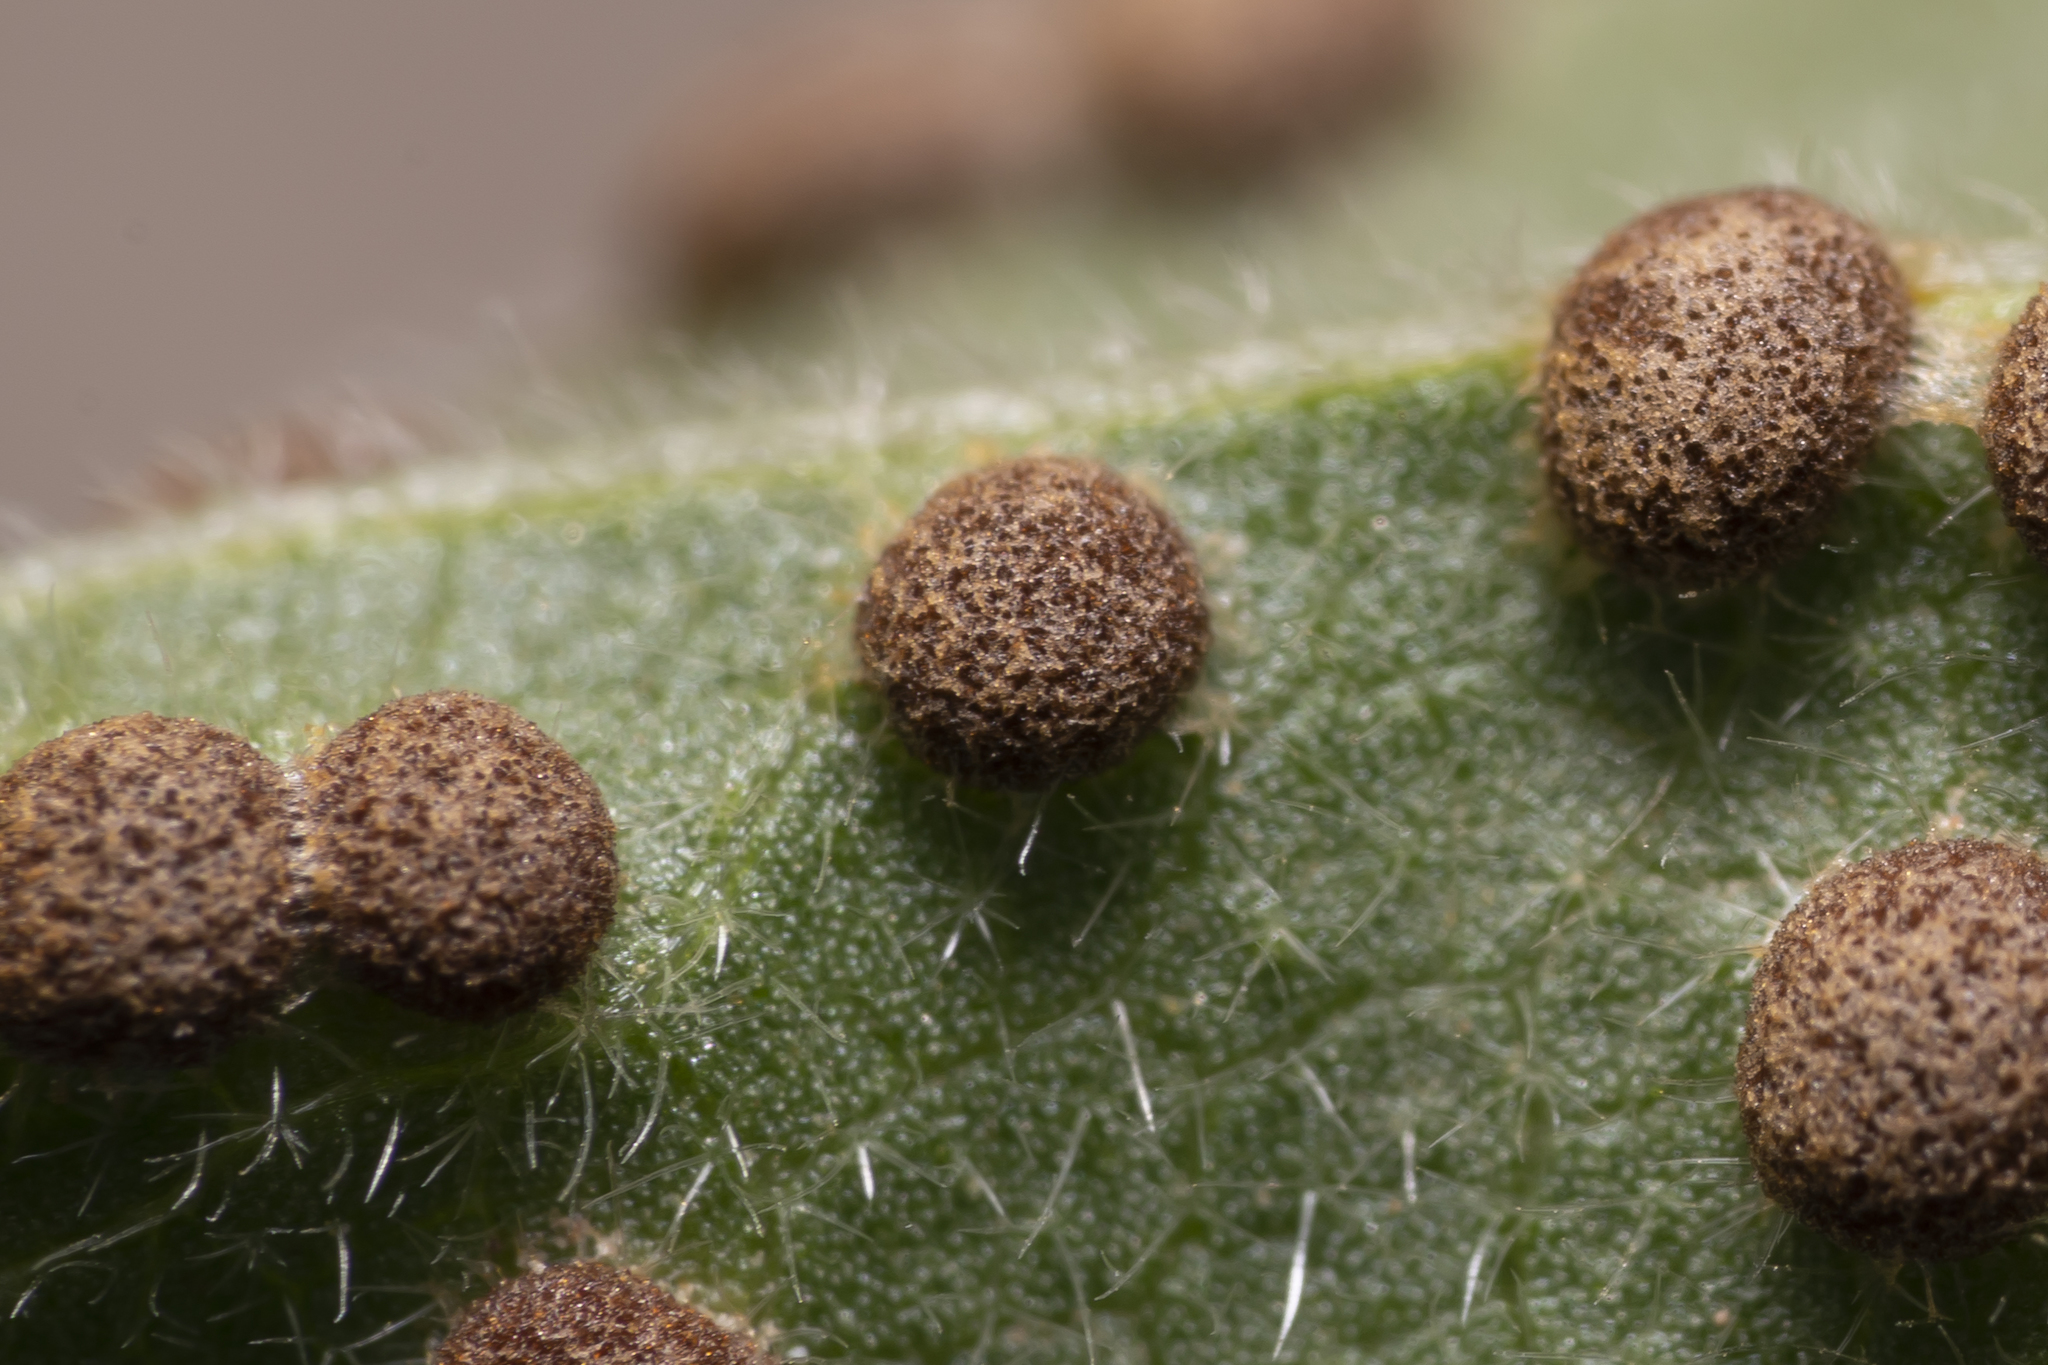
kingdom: Fungi
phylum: Basidiomycota
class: Pucciniomycetes
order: Pucciniales
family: Pucciniaceae
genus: Puccinia
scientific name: Puccinia malvacearum
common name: Hollyhock rust
